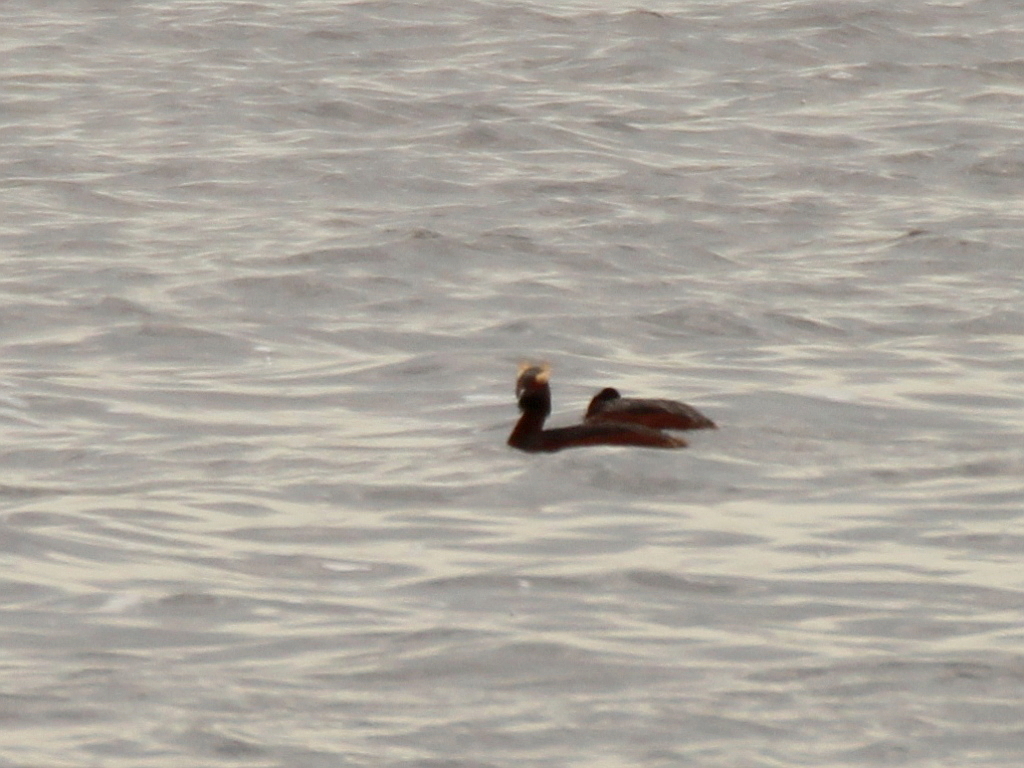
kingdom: Animalia
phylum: Chordata
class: Aves
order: Podicipediformes
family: Podicipedidae
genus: Podiceps
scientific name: Podiceps auritus
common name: Horned grebe
